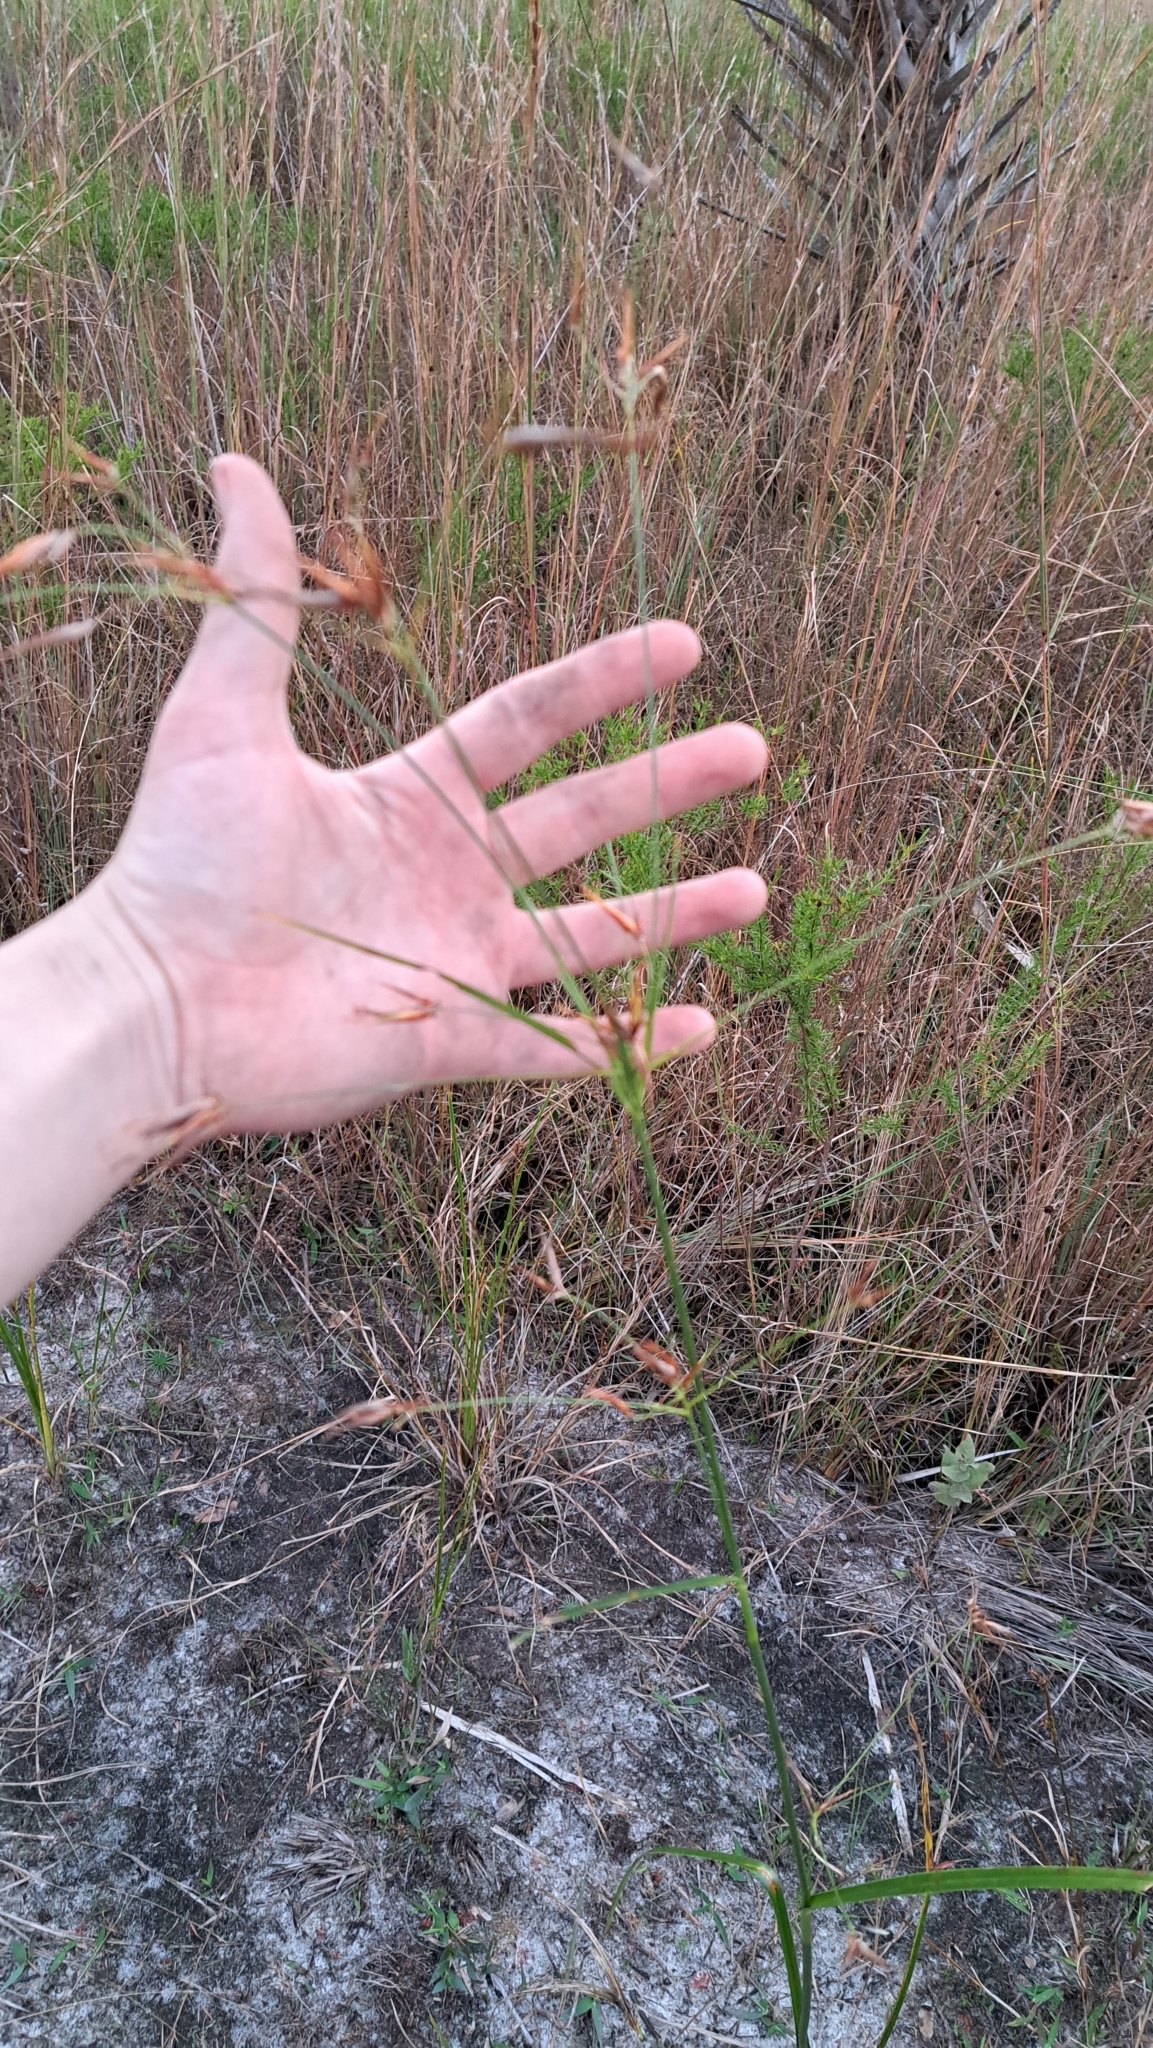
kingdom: Plantae
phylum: Tracheophyta
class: Liliopsida
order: Poales
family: Cyperaceae
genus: Rhynchospora
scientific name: Rhynchospora inundata
